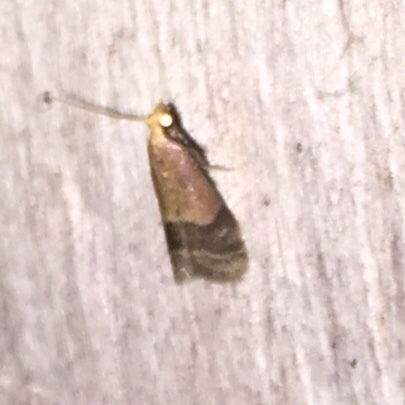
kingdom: Animalia
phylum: Arthropoda
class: Insecta
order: Lepidoptera
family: Pyralidae
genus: Eulogia
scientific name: Eulogia ochrifrontella
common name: Broad-banded eulogia moth
